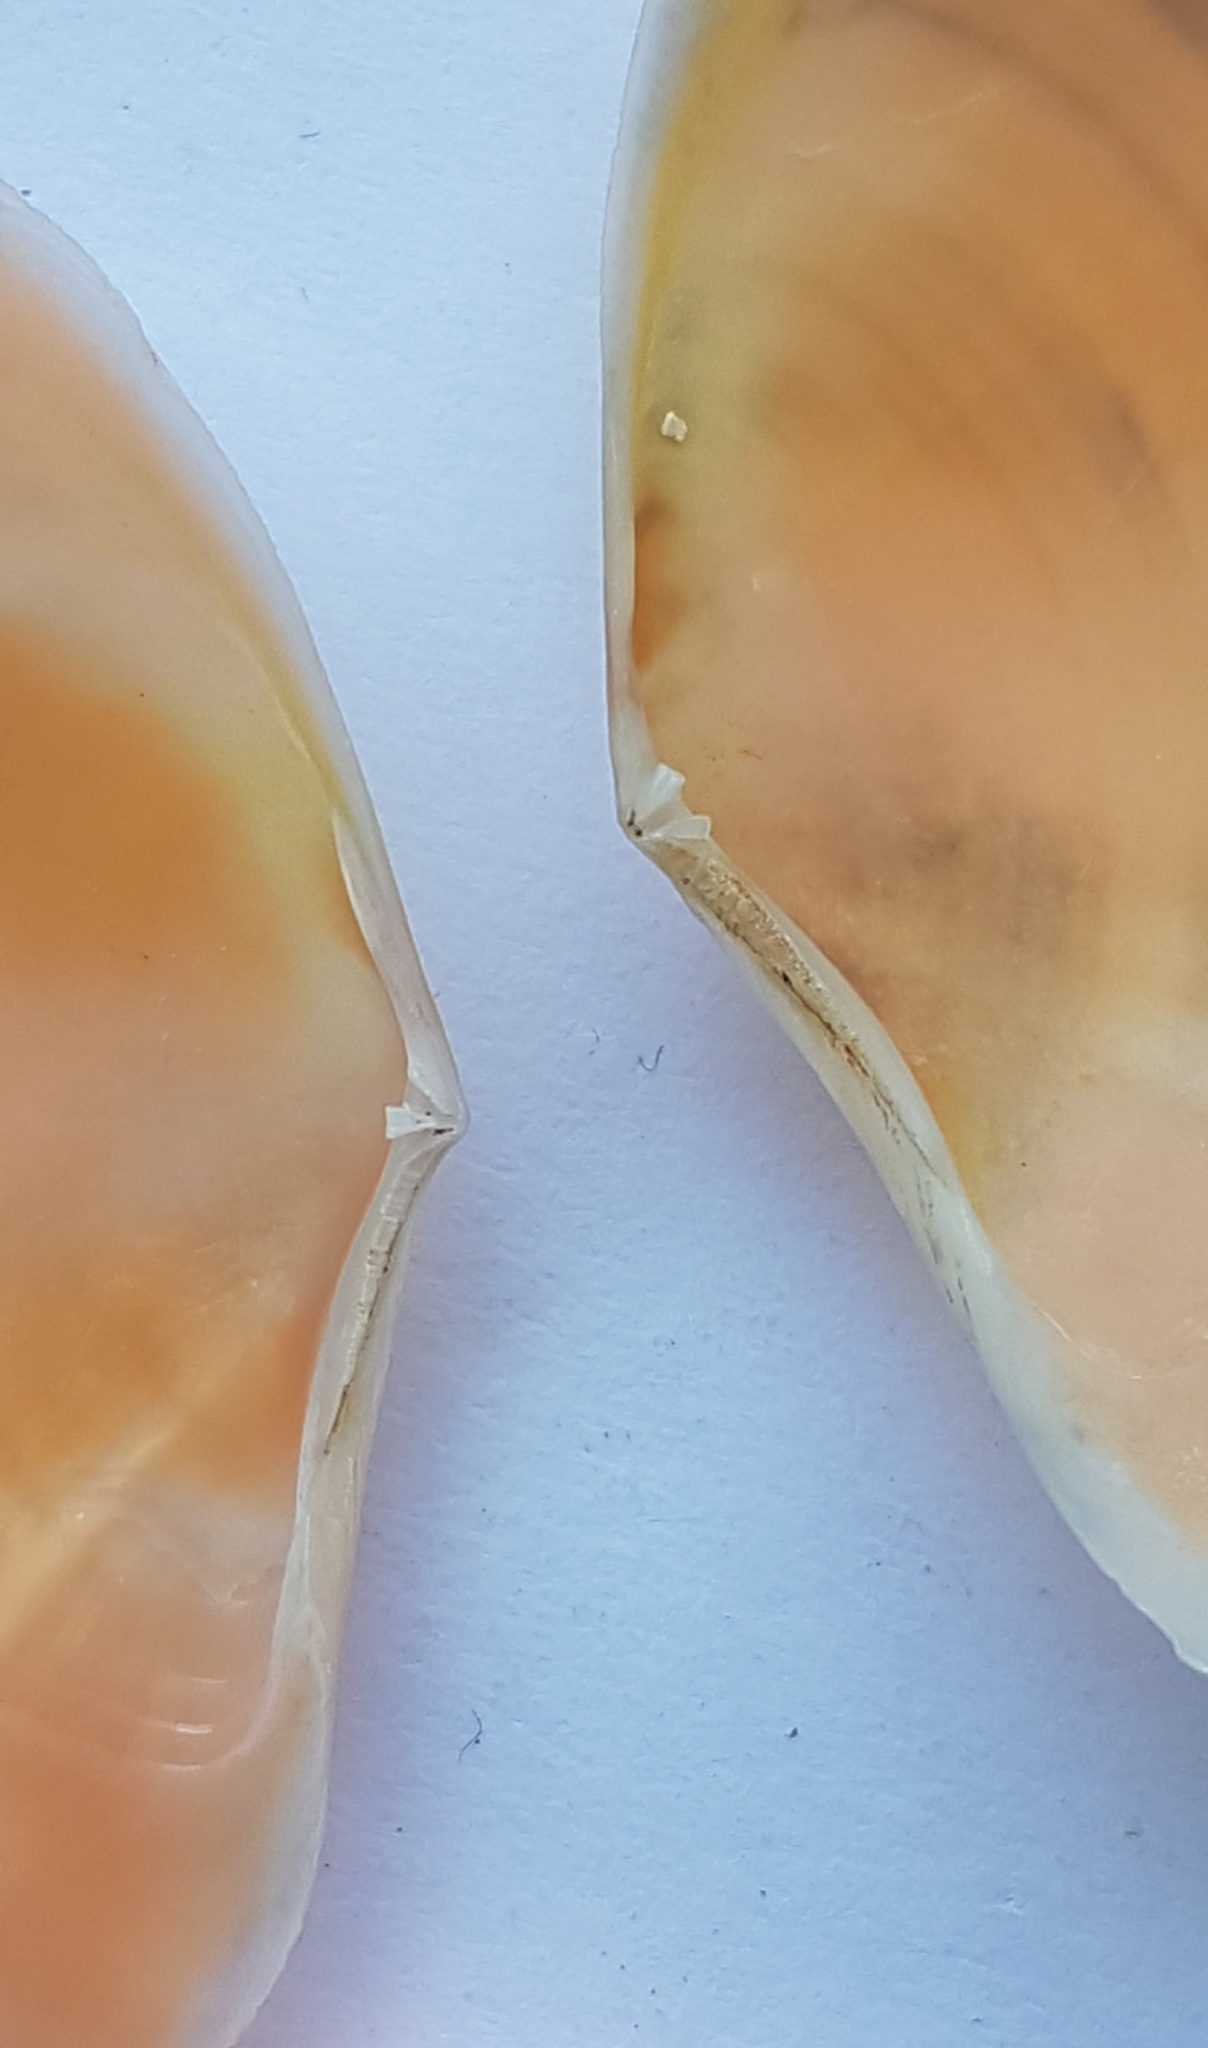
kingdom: Animalia
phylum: Mollusca
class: Bivalvia
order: Cardiida
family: Tellinidae
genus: Bosemprella
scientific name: Bosemprella incarnata
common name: Red tellin
